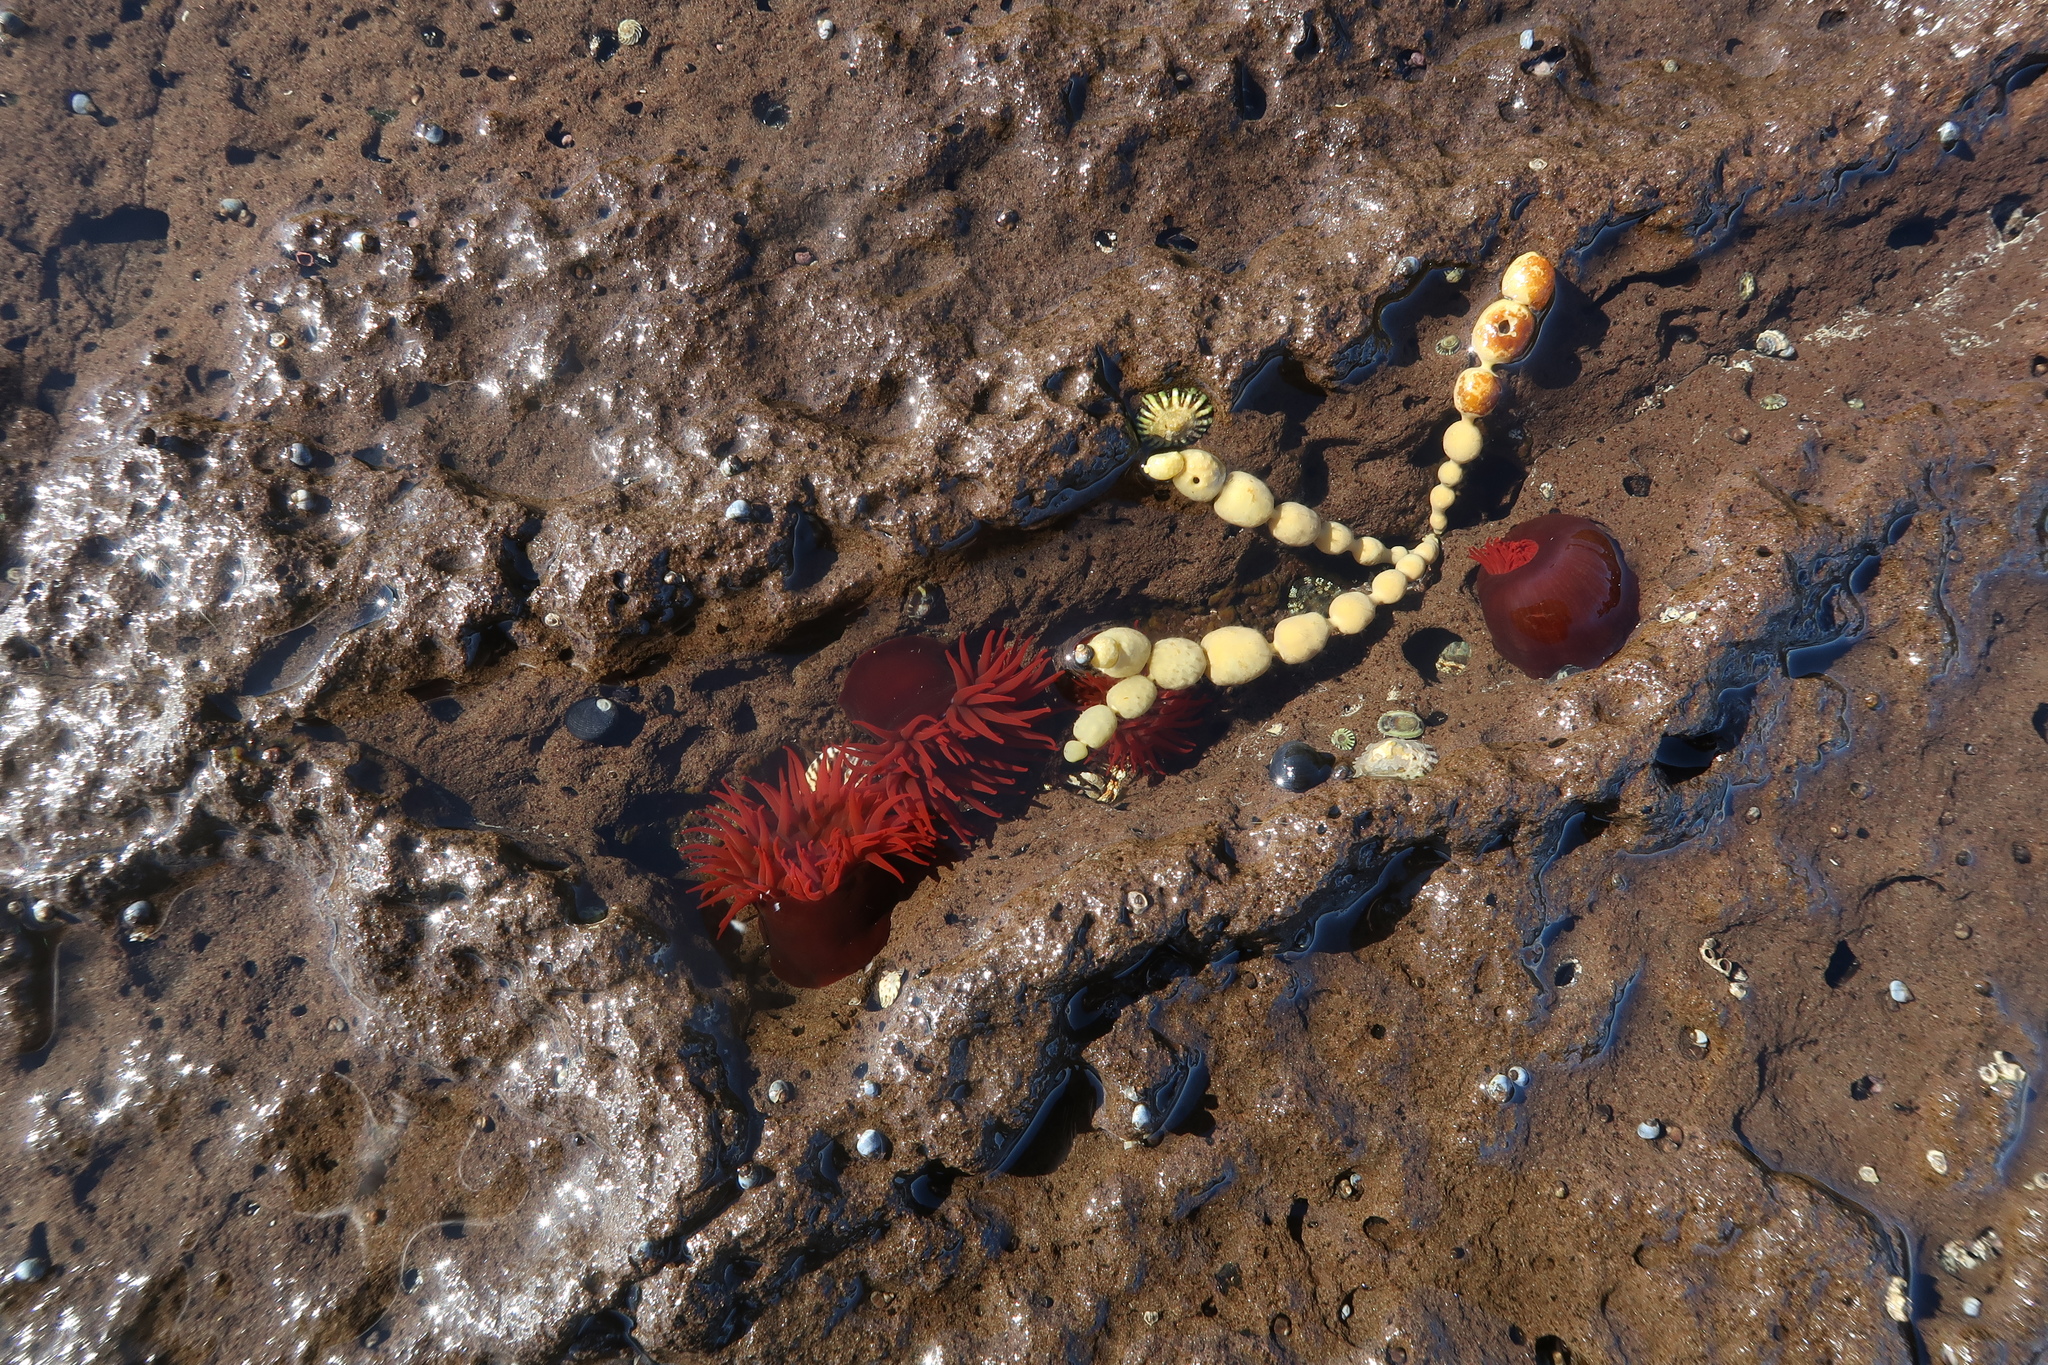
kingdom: Animalia
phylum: Cnidaria
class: Anthozoa
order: Actiniaria
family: Actiniidae
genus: Actinia
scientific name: Actinia tenebrosa
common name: Waratah anemone
